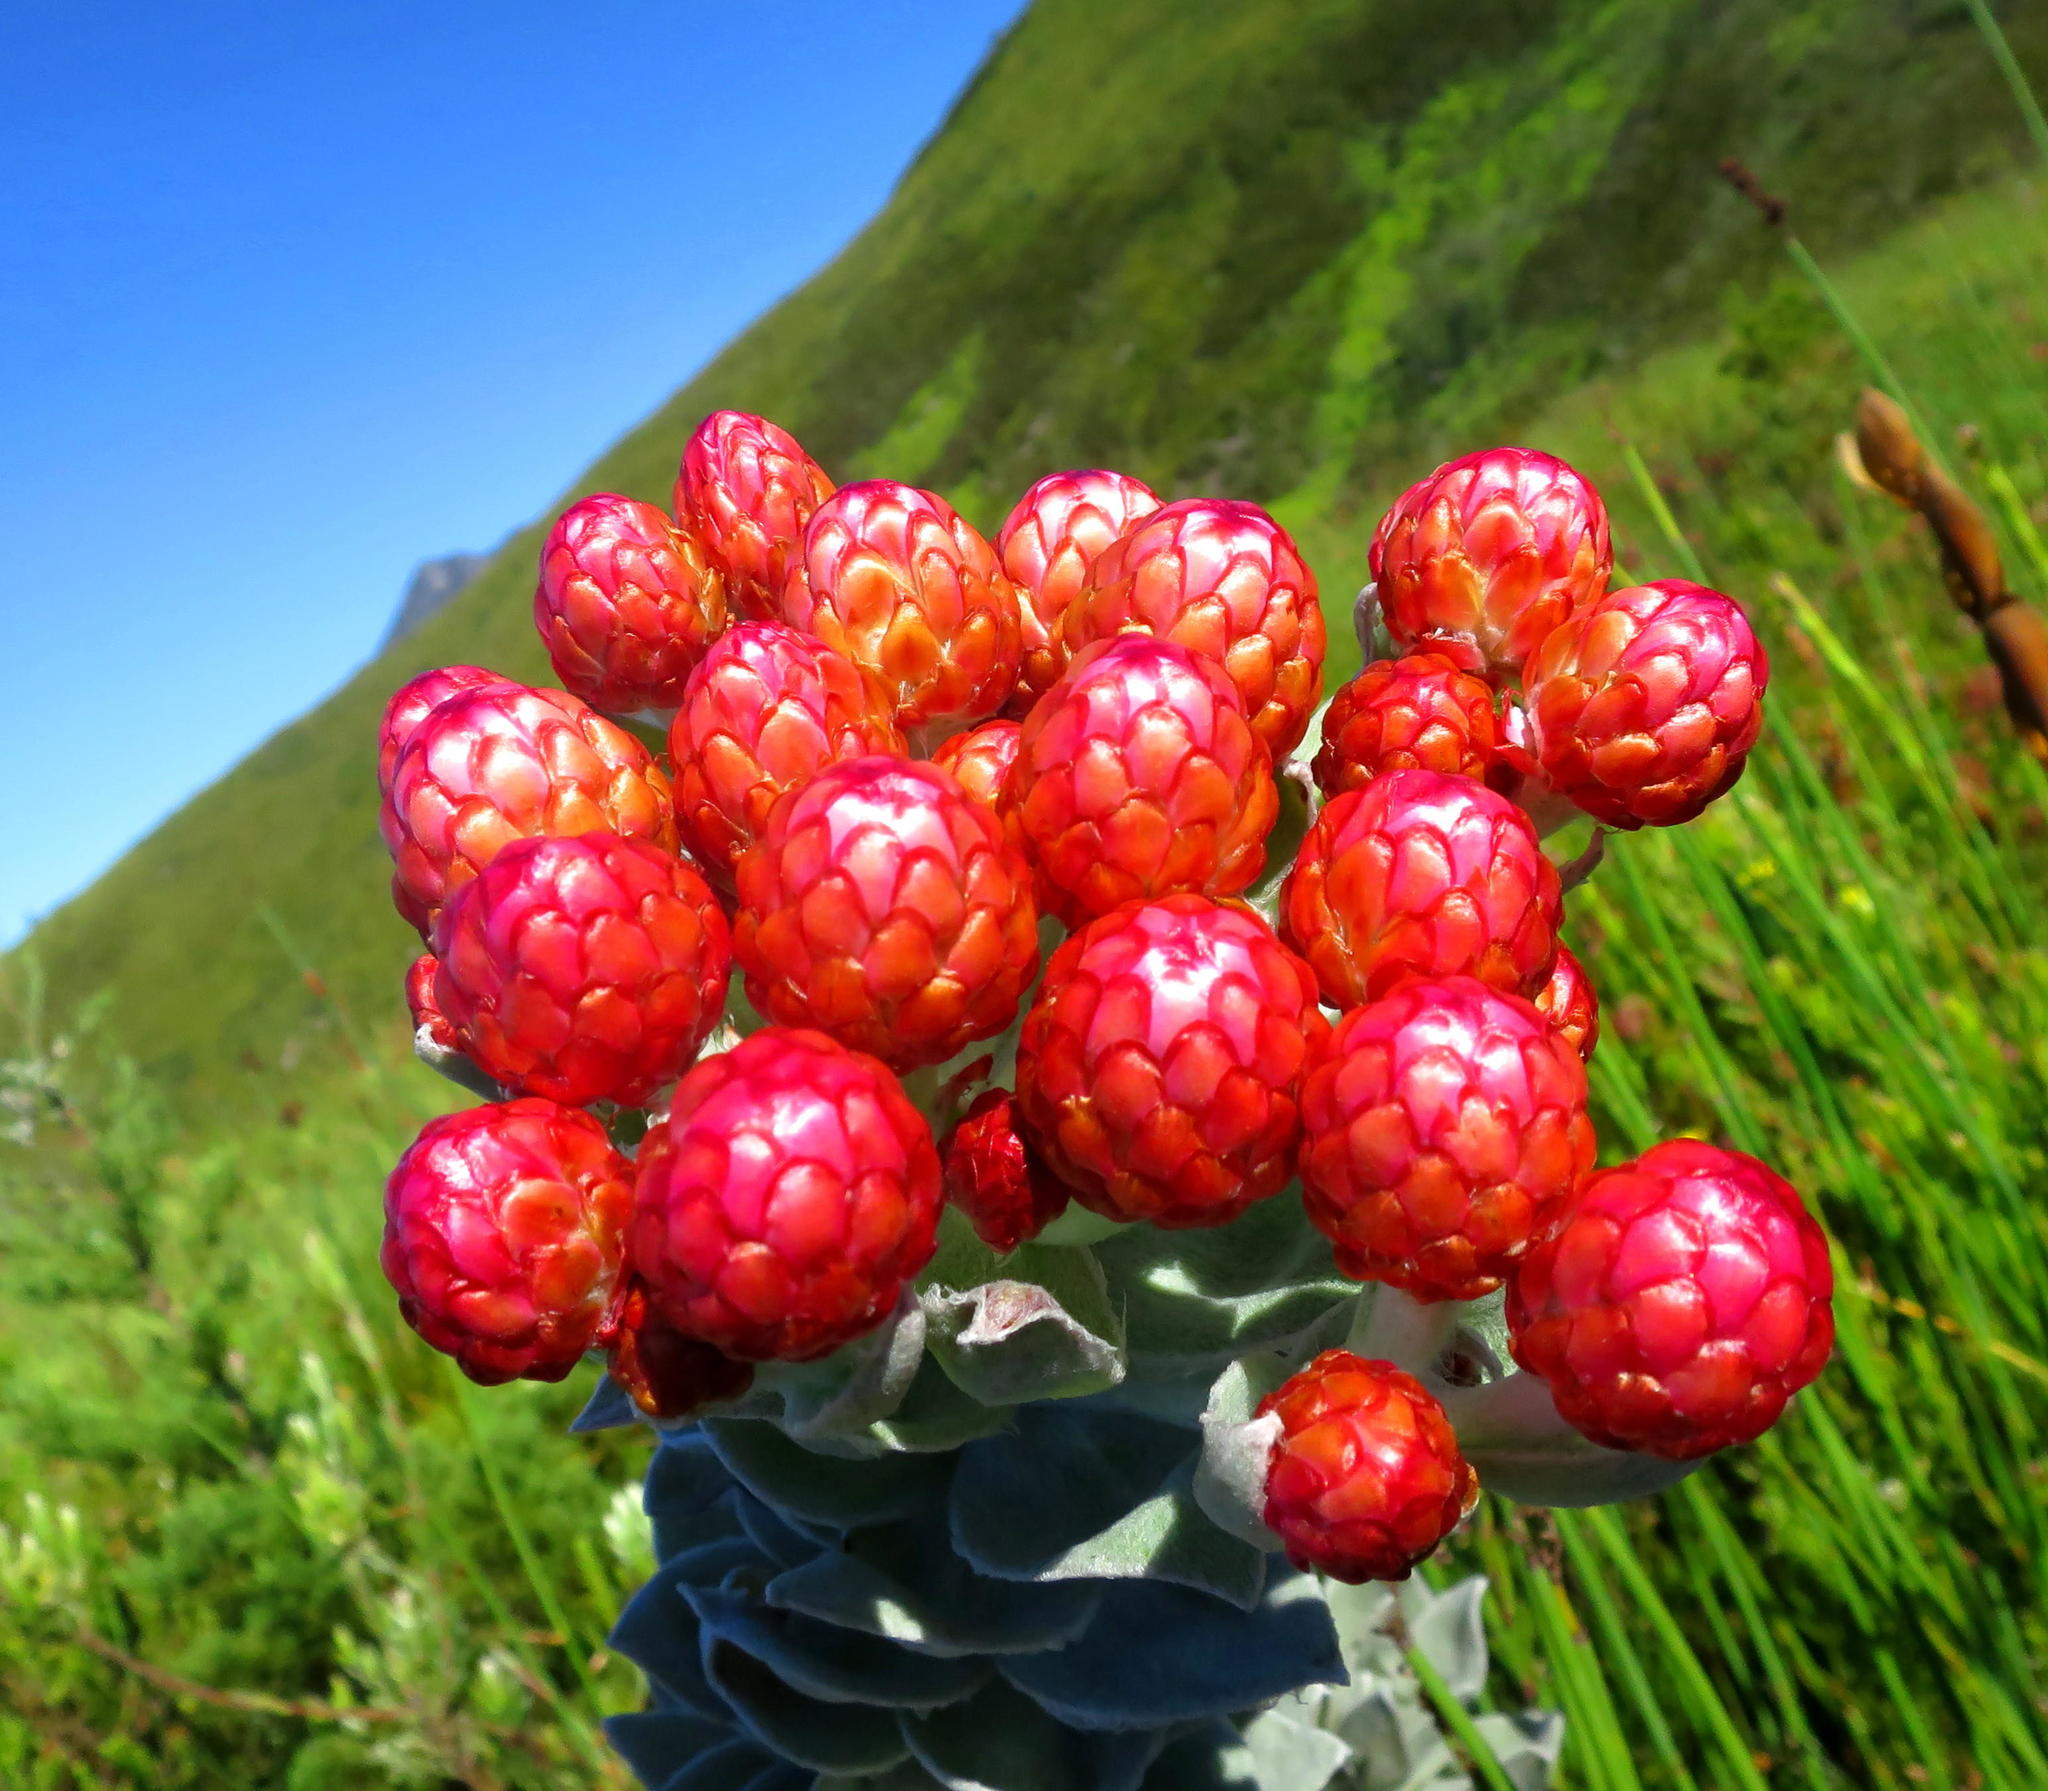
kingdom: Plantae
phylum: Tracheophyta
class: Magnoliopsida
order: Asterales
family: Asteraceae
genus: Syncarpha
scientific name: Syncarpha eximia
